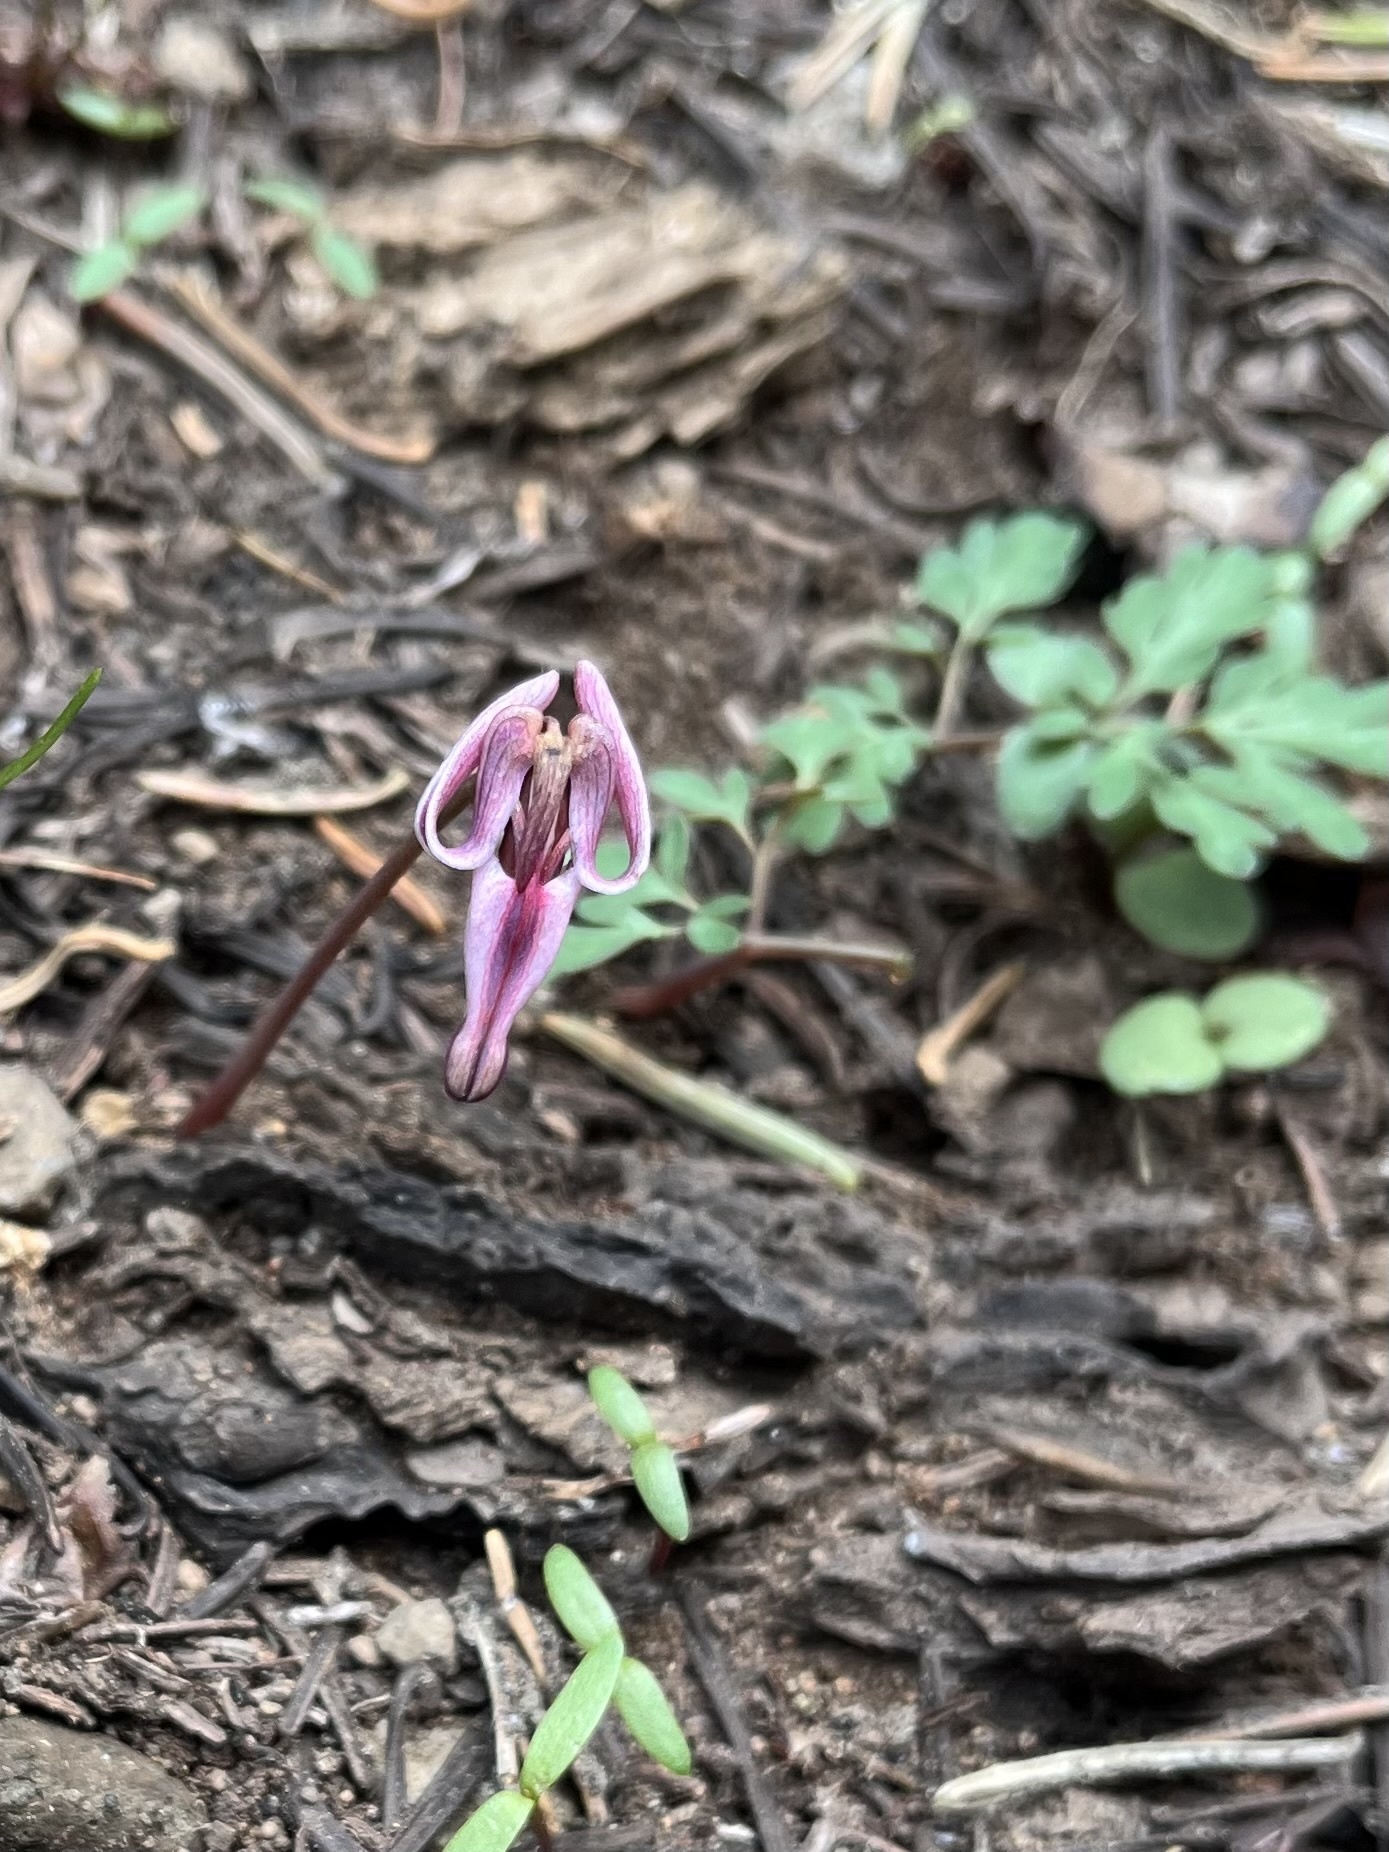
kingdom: Plantae
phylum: Tracheophyta
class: Magnoliopsida
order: Ranunculales
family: Papaveraceae
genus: Dicentra
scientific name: Dicentra uniflora
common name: Steer's-head
